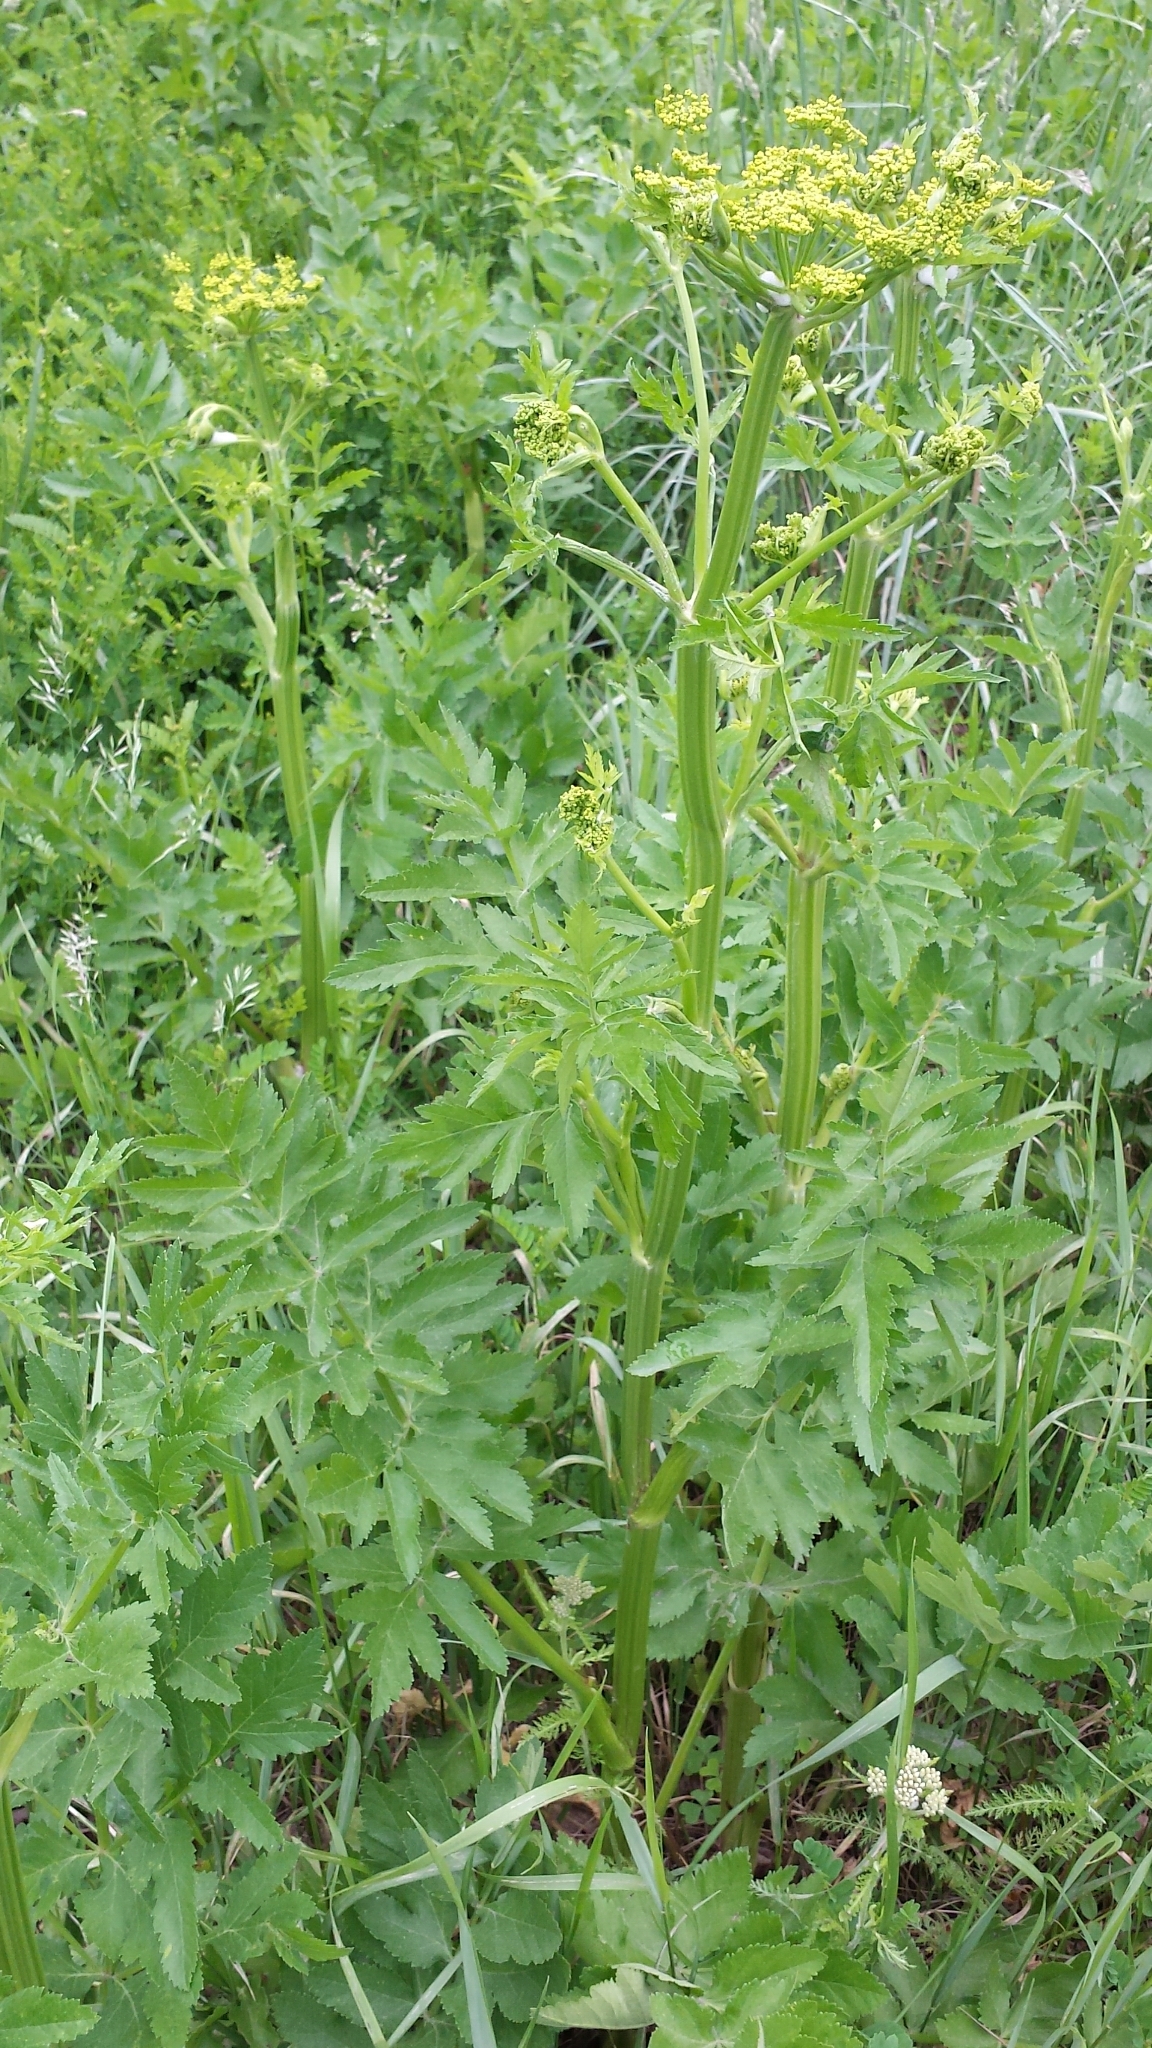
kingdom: Plantae
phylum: Tracheophyta
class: Magnoliopsida
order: Apiales
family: Apiaceae
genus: Pastinaca
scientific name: Pastinaca sativa
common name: Wild parsnip
